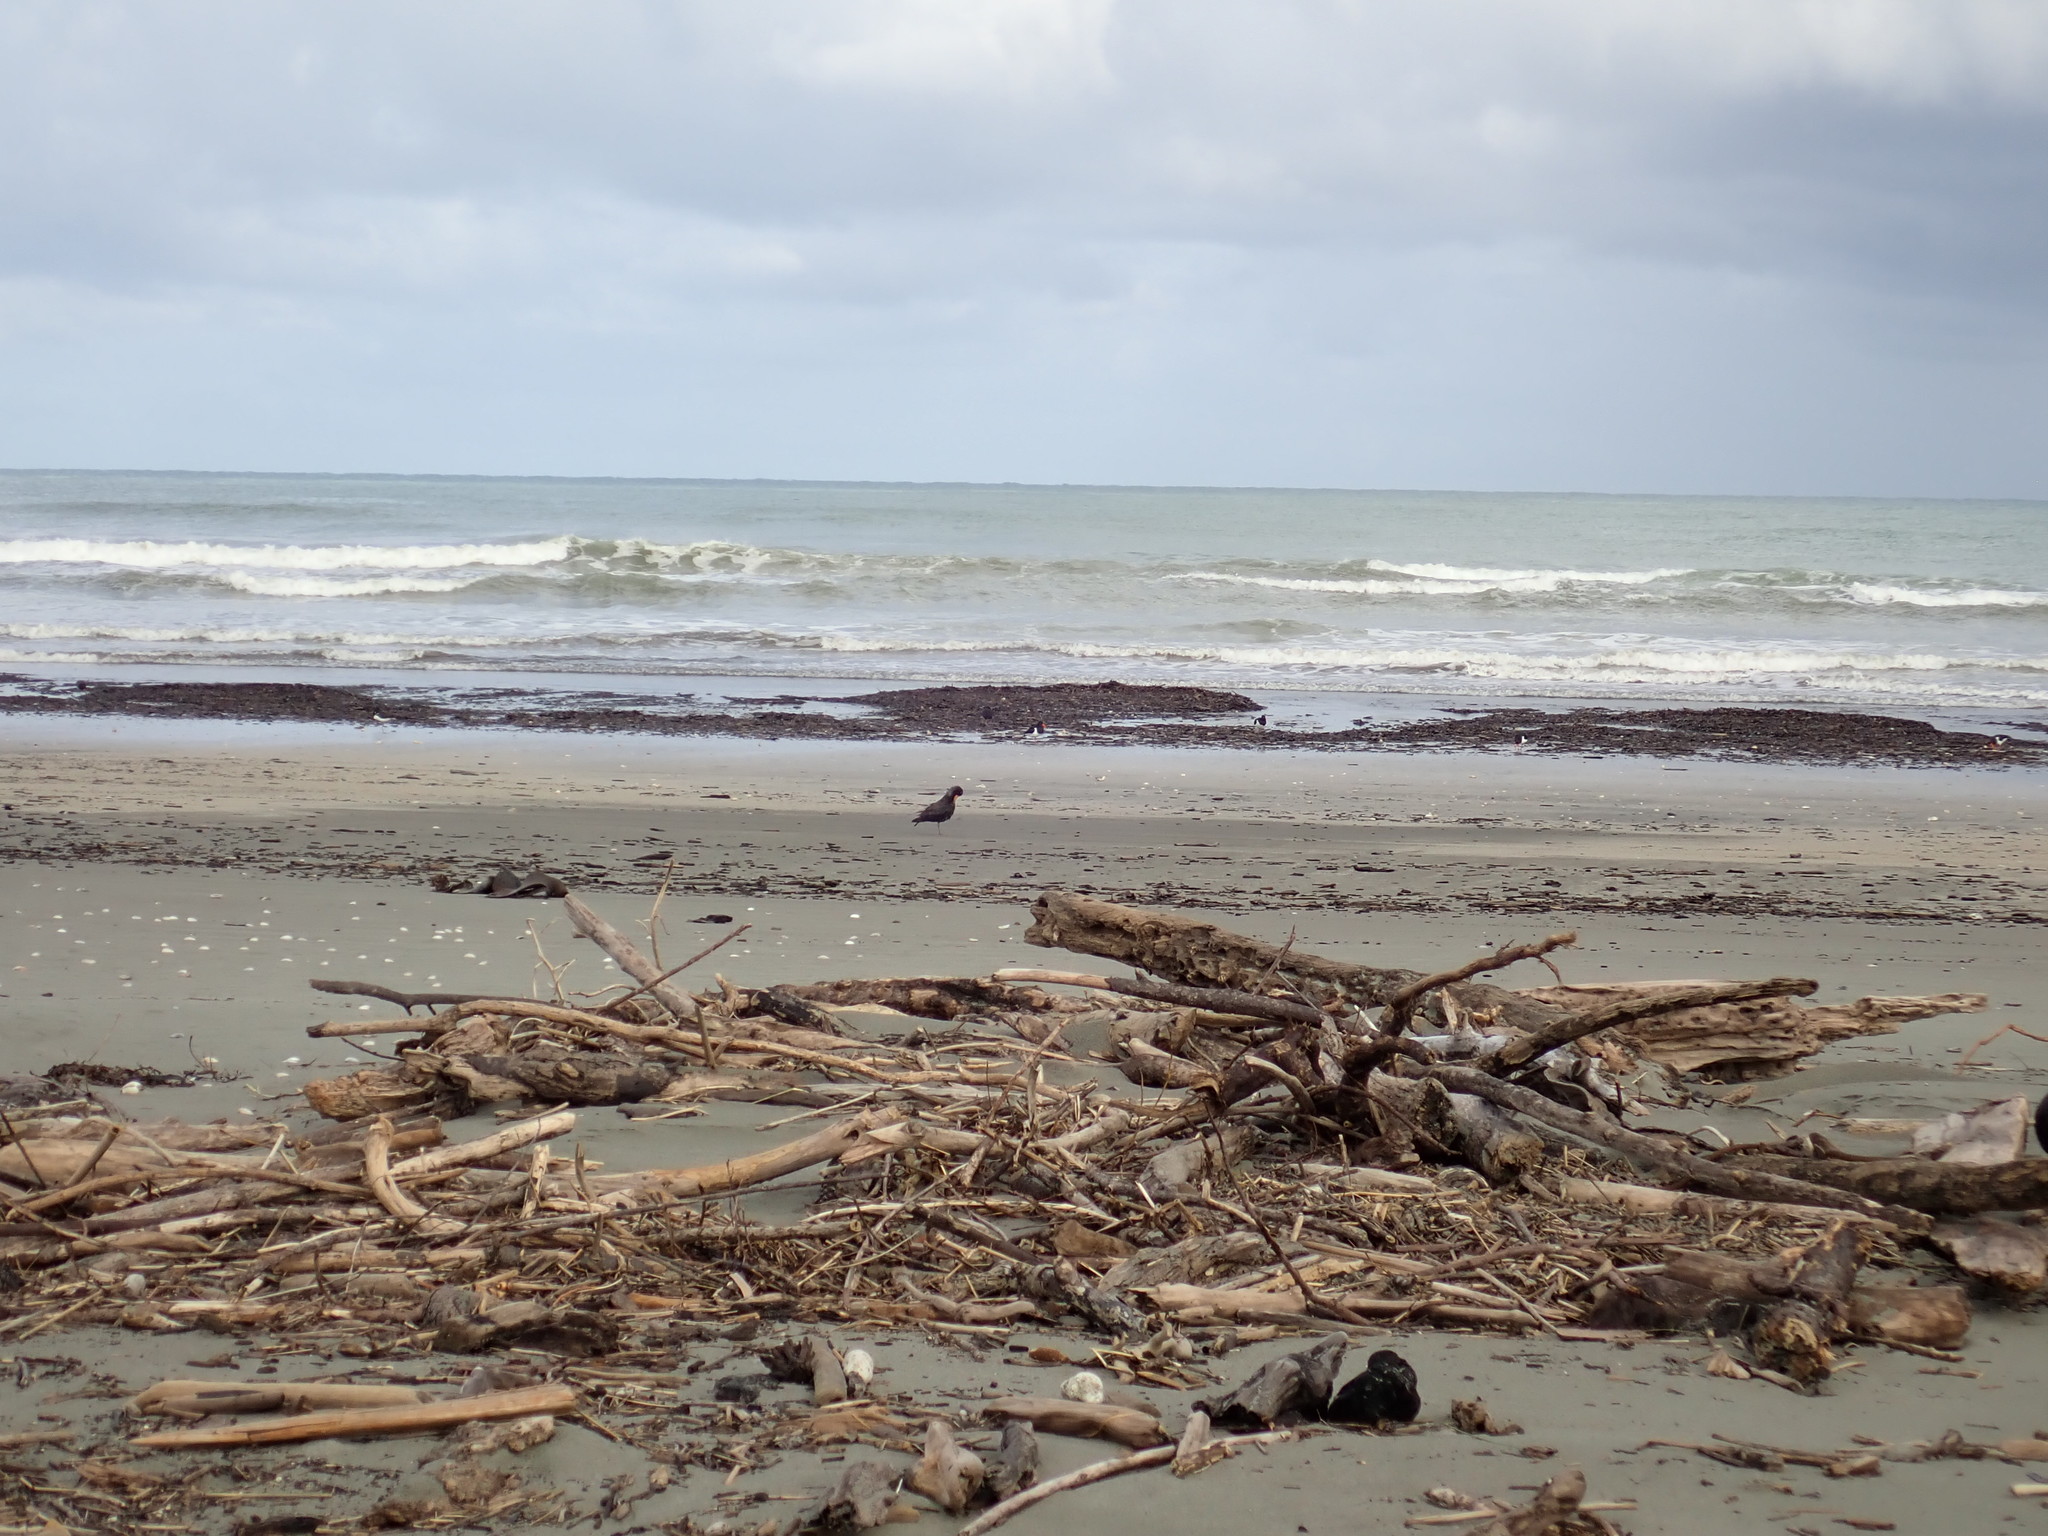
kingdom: Animalia
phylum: Chordata
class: Aves
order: Charadriiformes
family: Haematopodidae
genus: Haematopus
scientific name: Haematopus unicolor
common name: Variable oystercatcher
